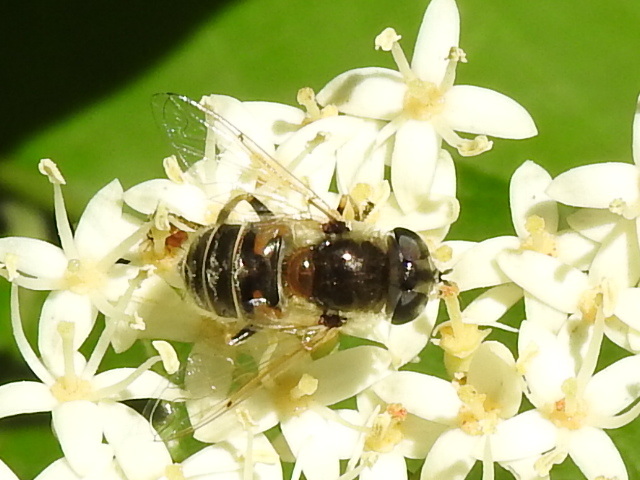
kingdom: Animalia
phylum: Arthropoda
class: Insecta
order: Diptera
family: Syrphidae
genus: Eristalis
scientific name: Eristalis stipator
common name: Yellow-shouldered drone fly
